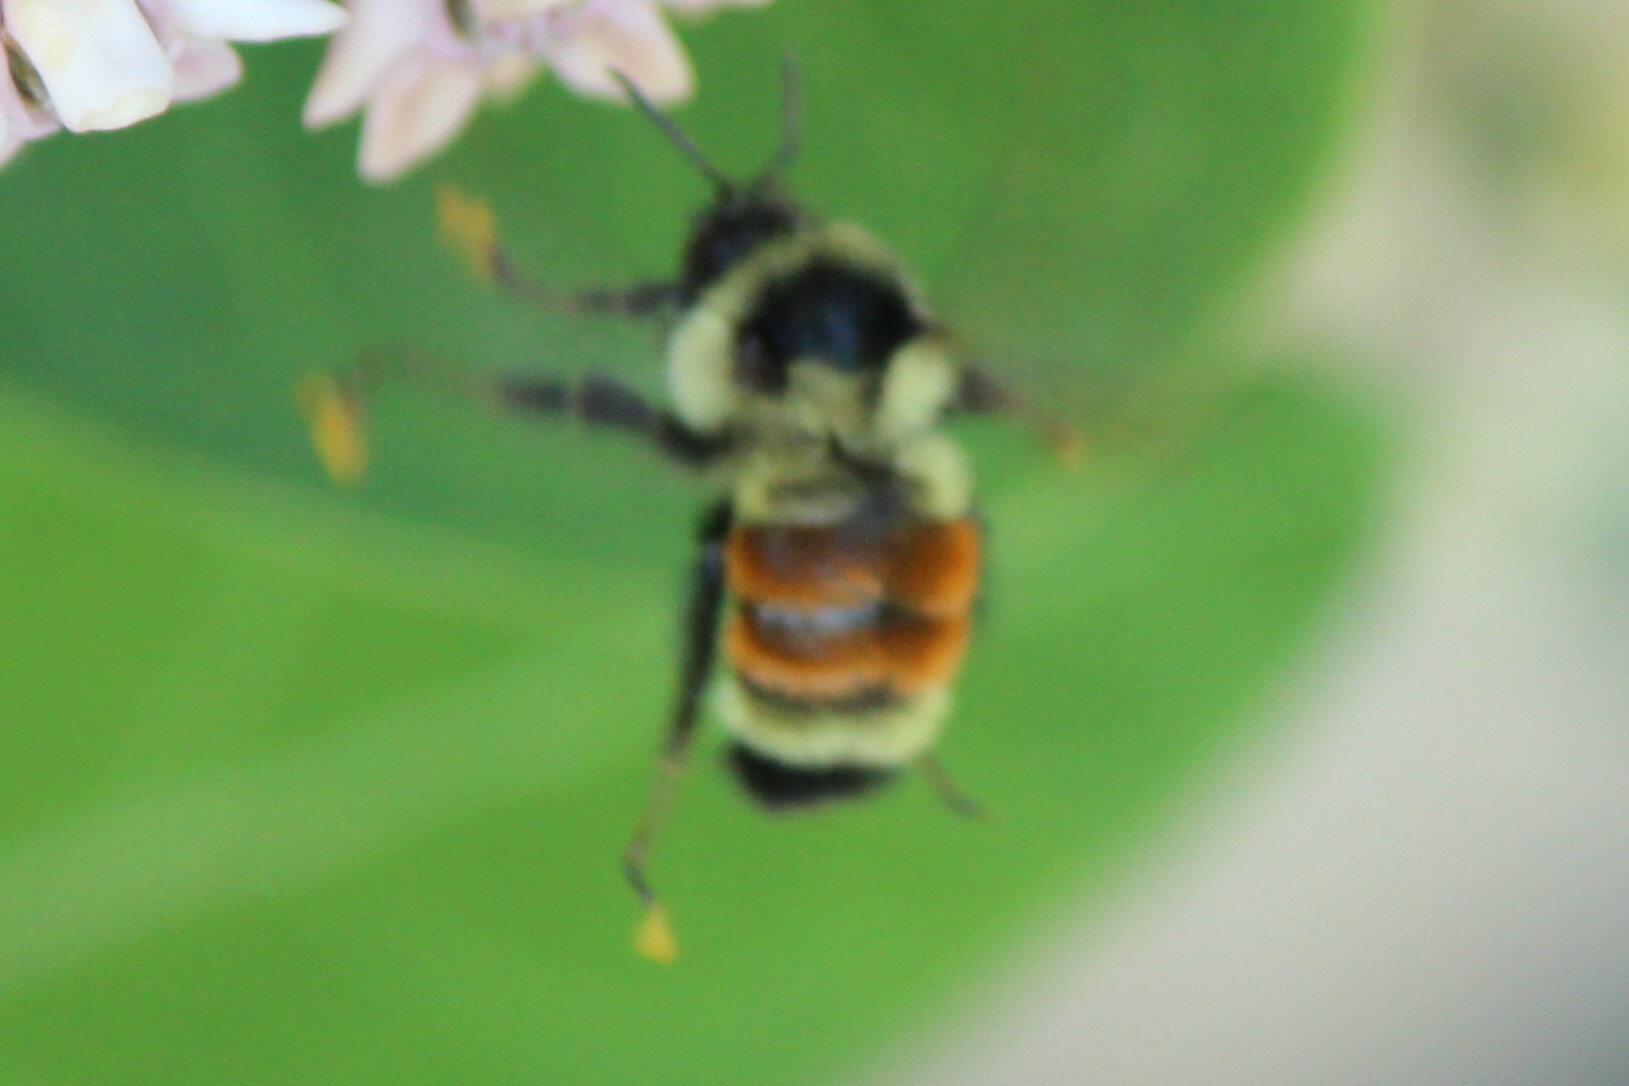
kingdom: Animalia
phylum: Arthropoda
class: Insecta
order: Hymenoptera
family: Apidae
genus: Bombus
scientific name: Bombus ternarius
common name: Tri-colored bumble bee
